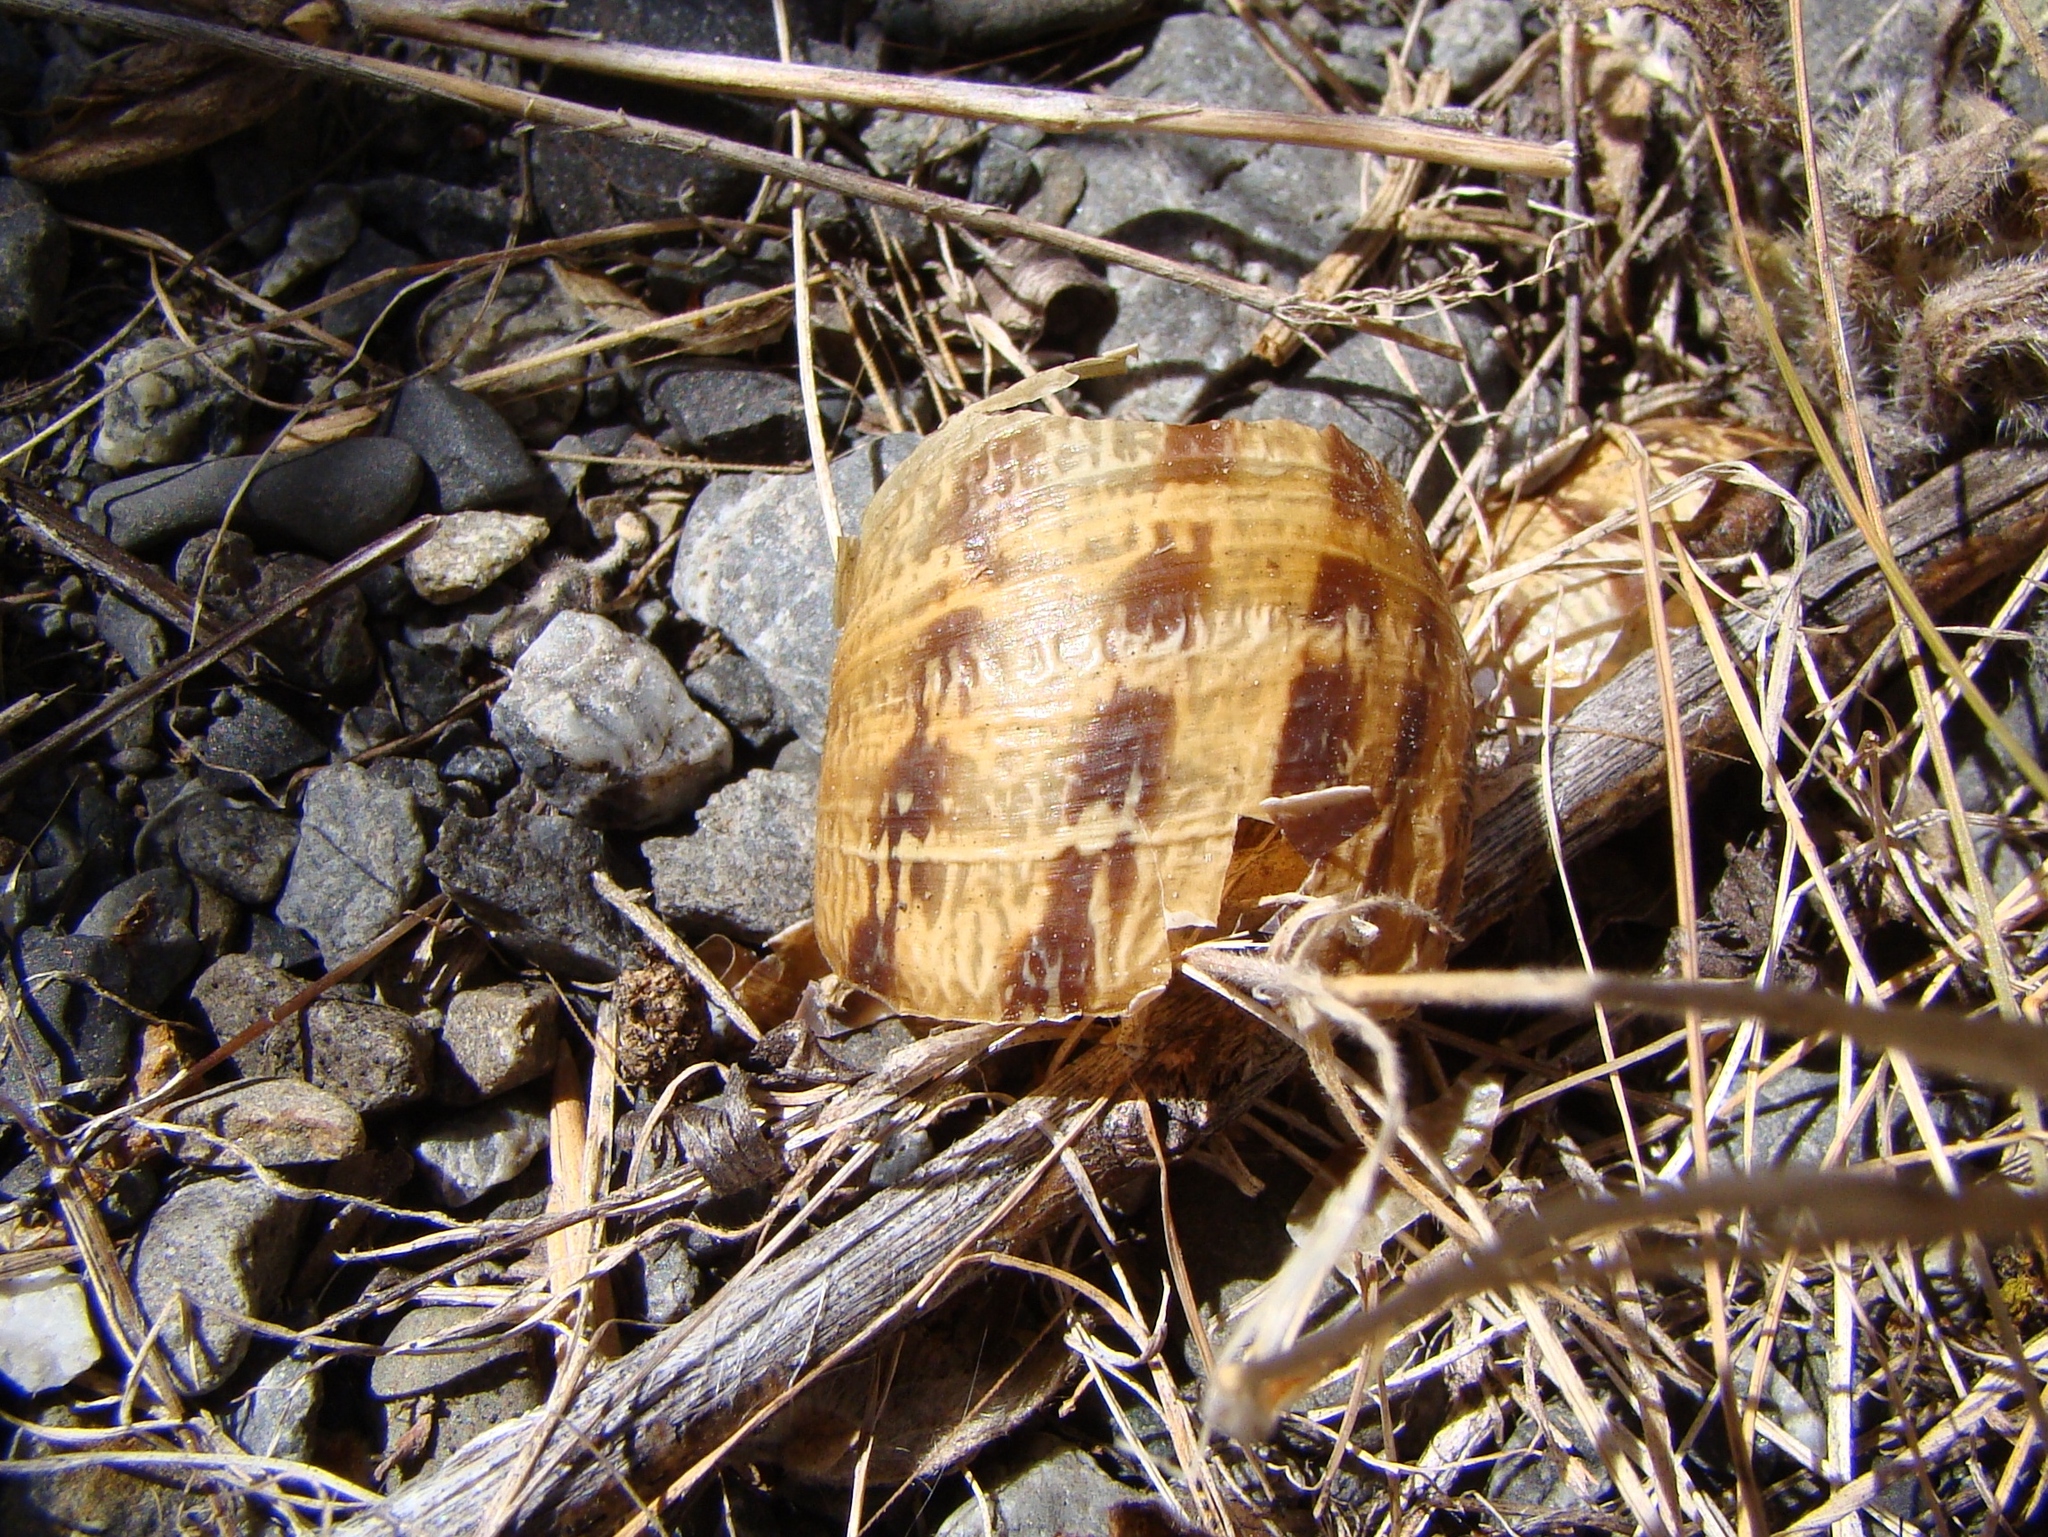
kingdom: Animalia
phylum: Mollusca
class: Gastropoda
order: Stylommatophora
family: Helicidae
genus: Cornu
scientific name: Cornu aspersum
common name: Brown garden snail
